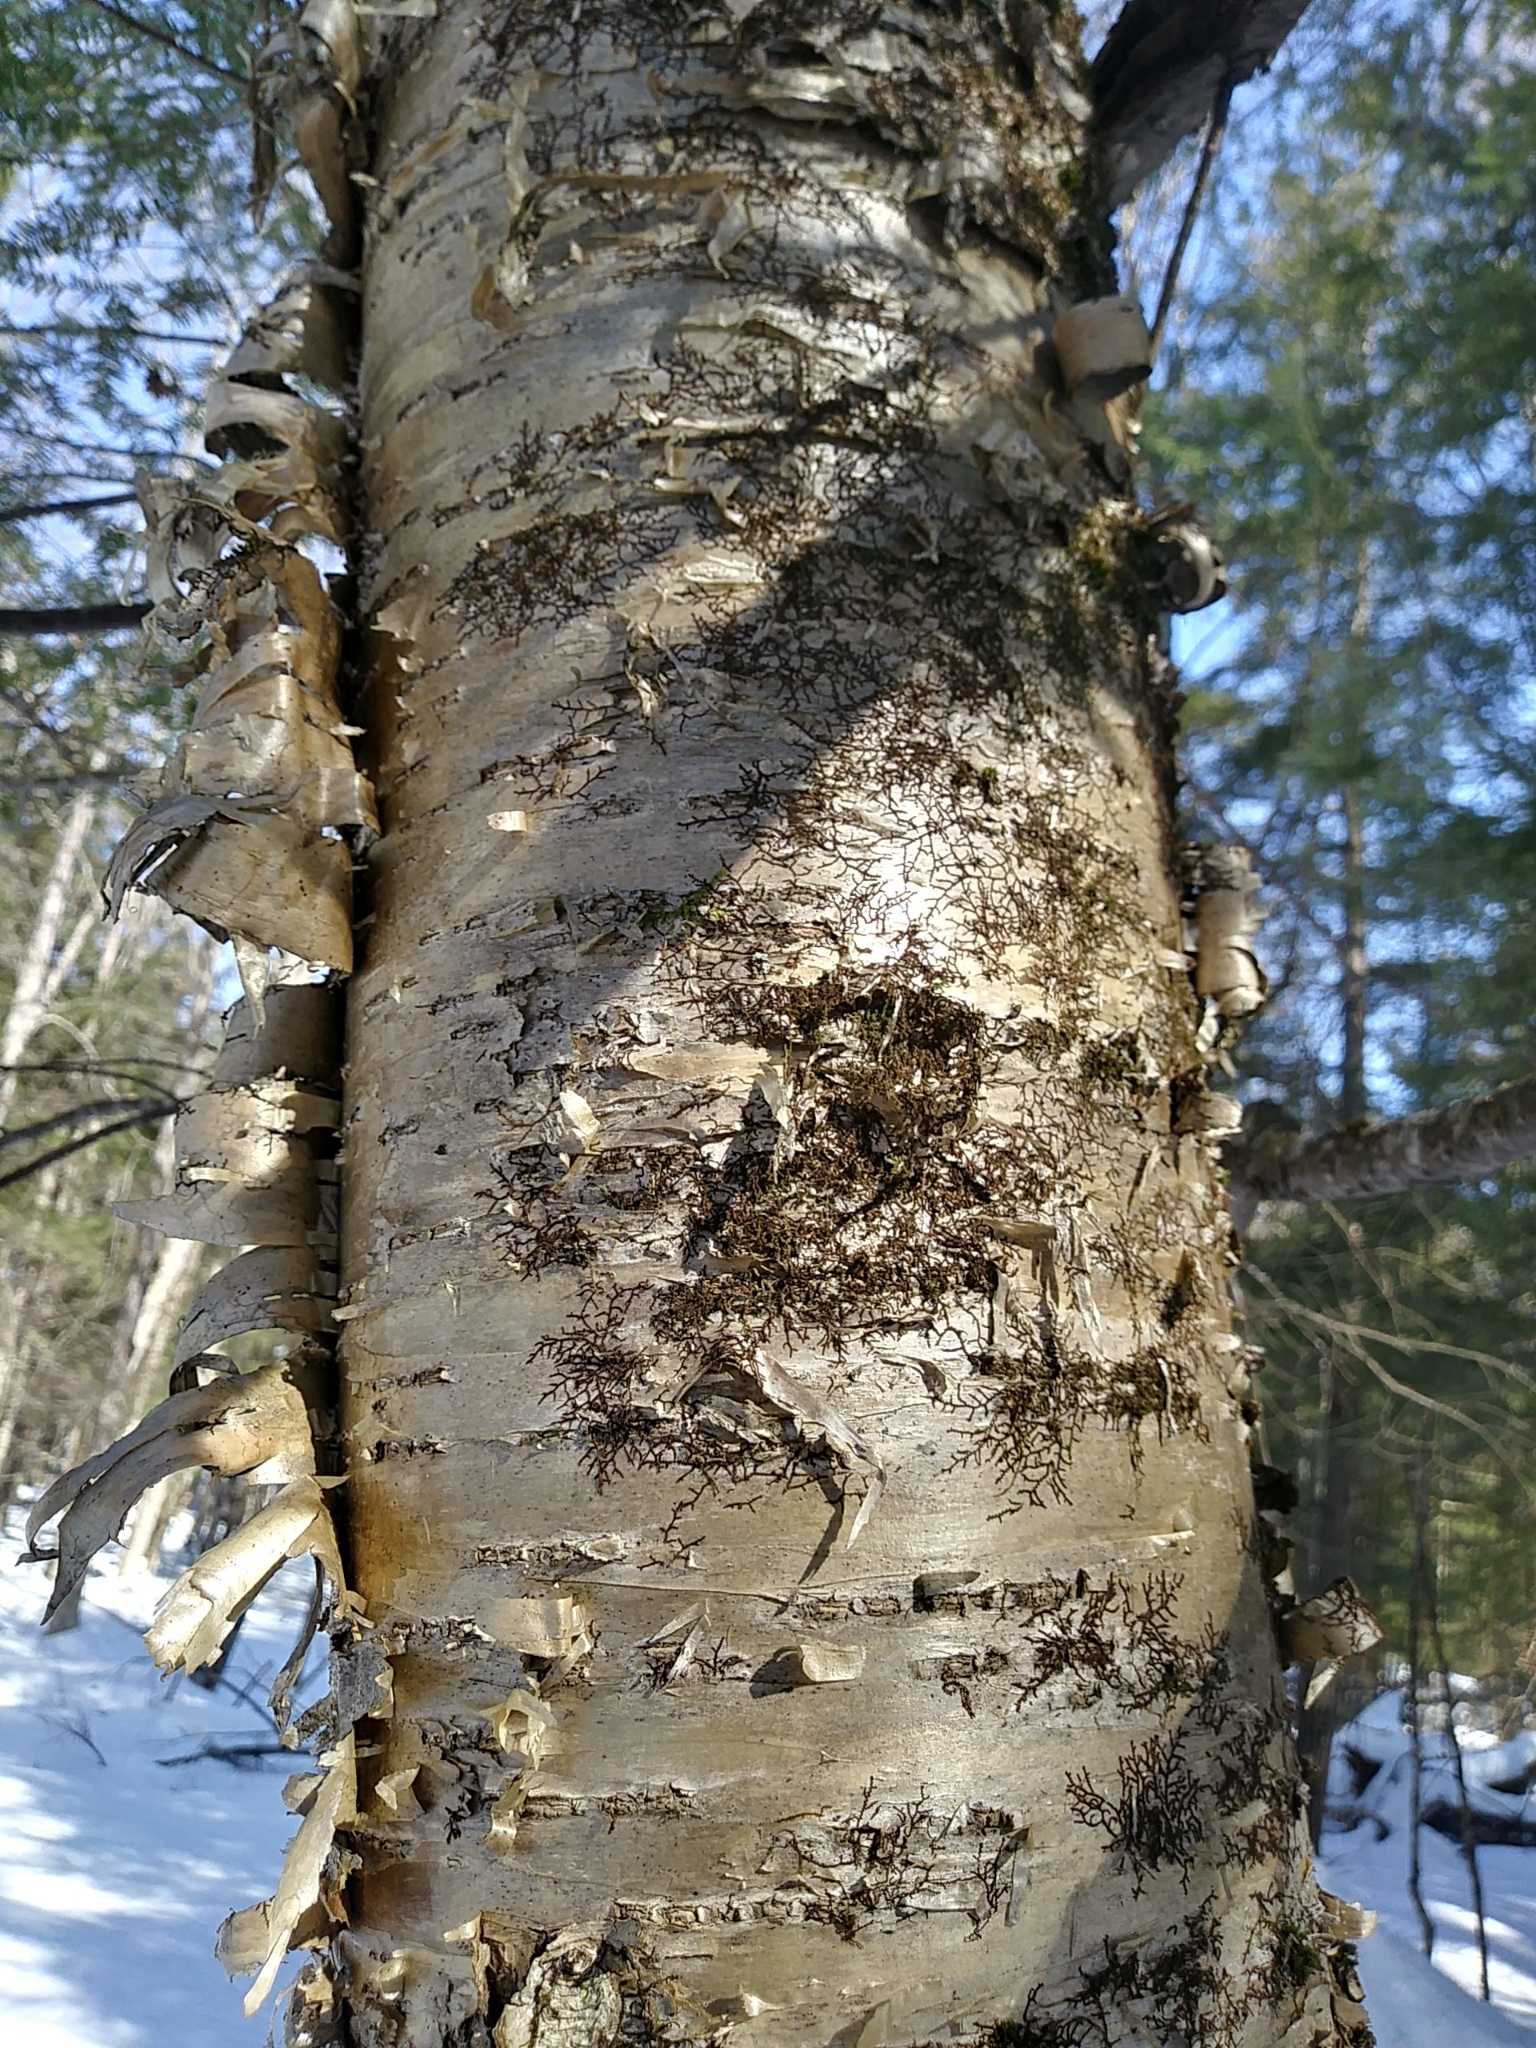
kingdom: Plantae
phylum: Tracheophyta
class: Magnoliopsida
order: Fagales
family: Betulaceae
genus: Betula
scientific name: Betula alleghaniensis
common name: Yellow birch
